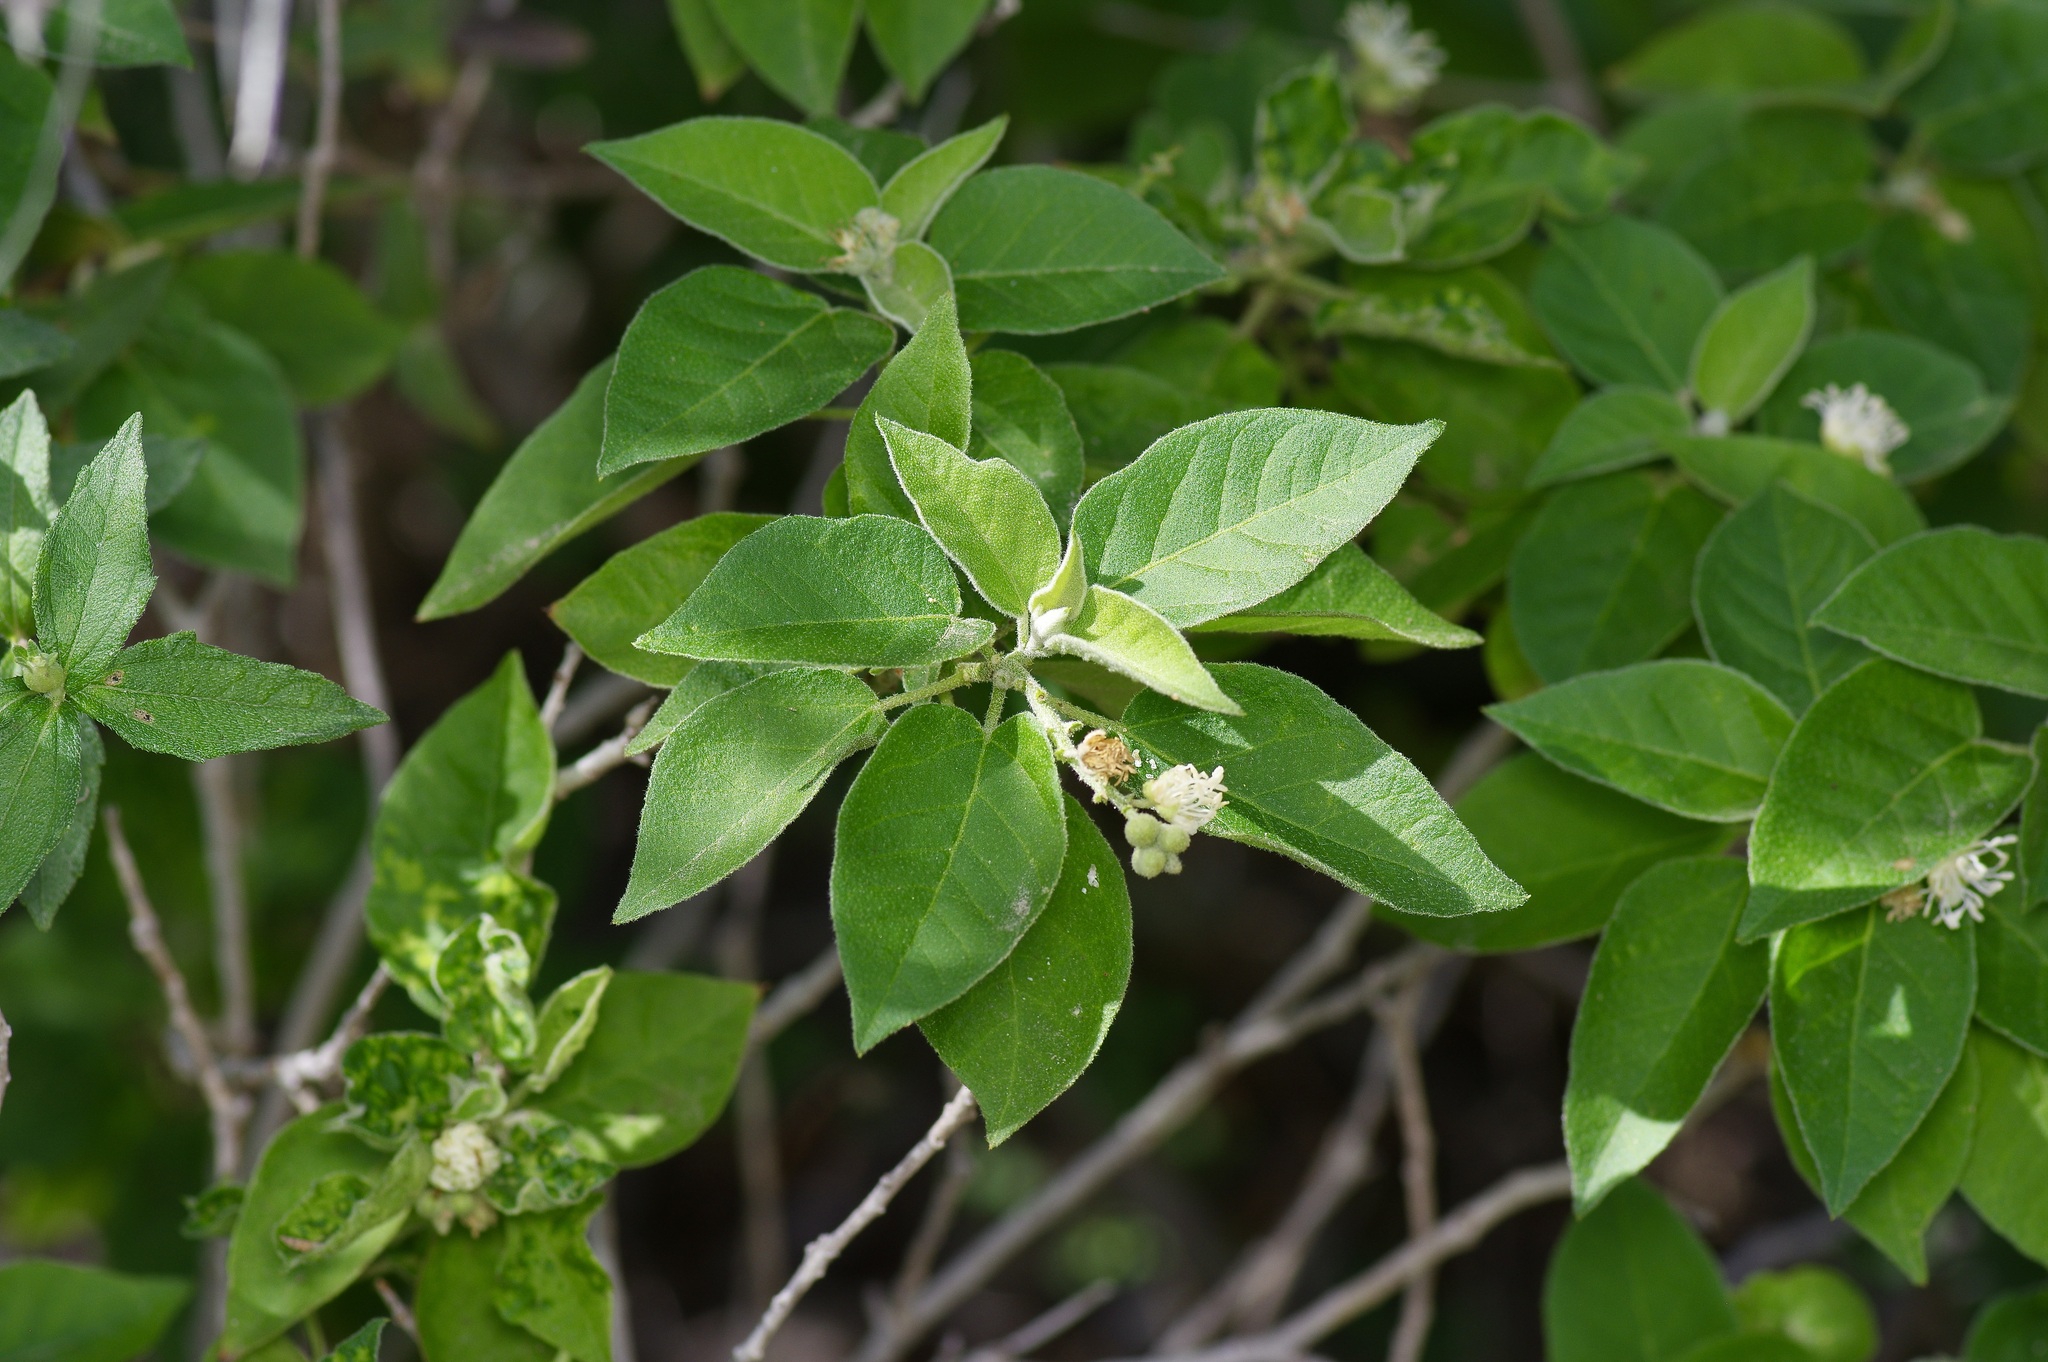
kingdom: Plantae
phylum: Tracheophyta
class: Magnoliopsida
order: Malpighiales
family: Euphorbiaceae
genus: Croton
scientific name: Croton humilis
